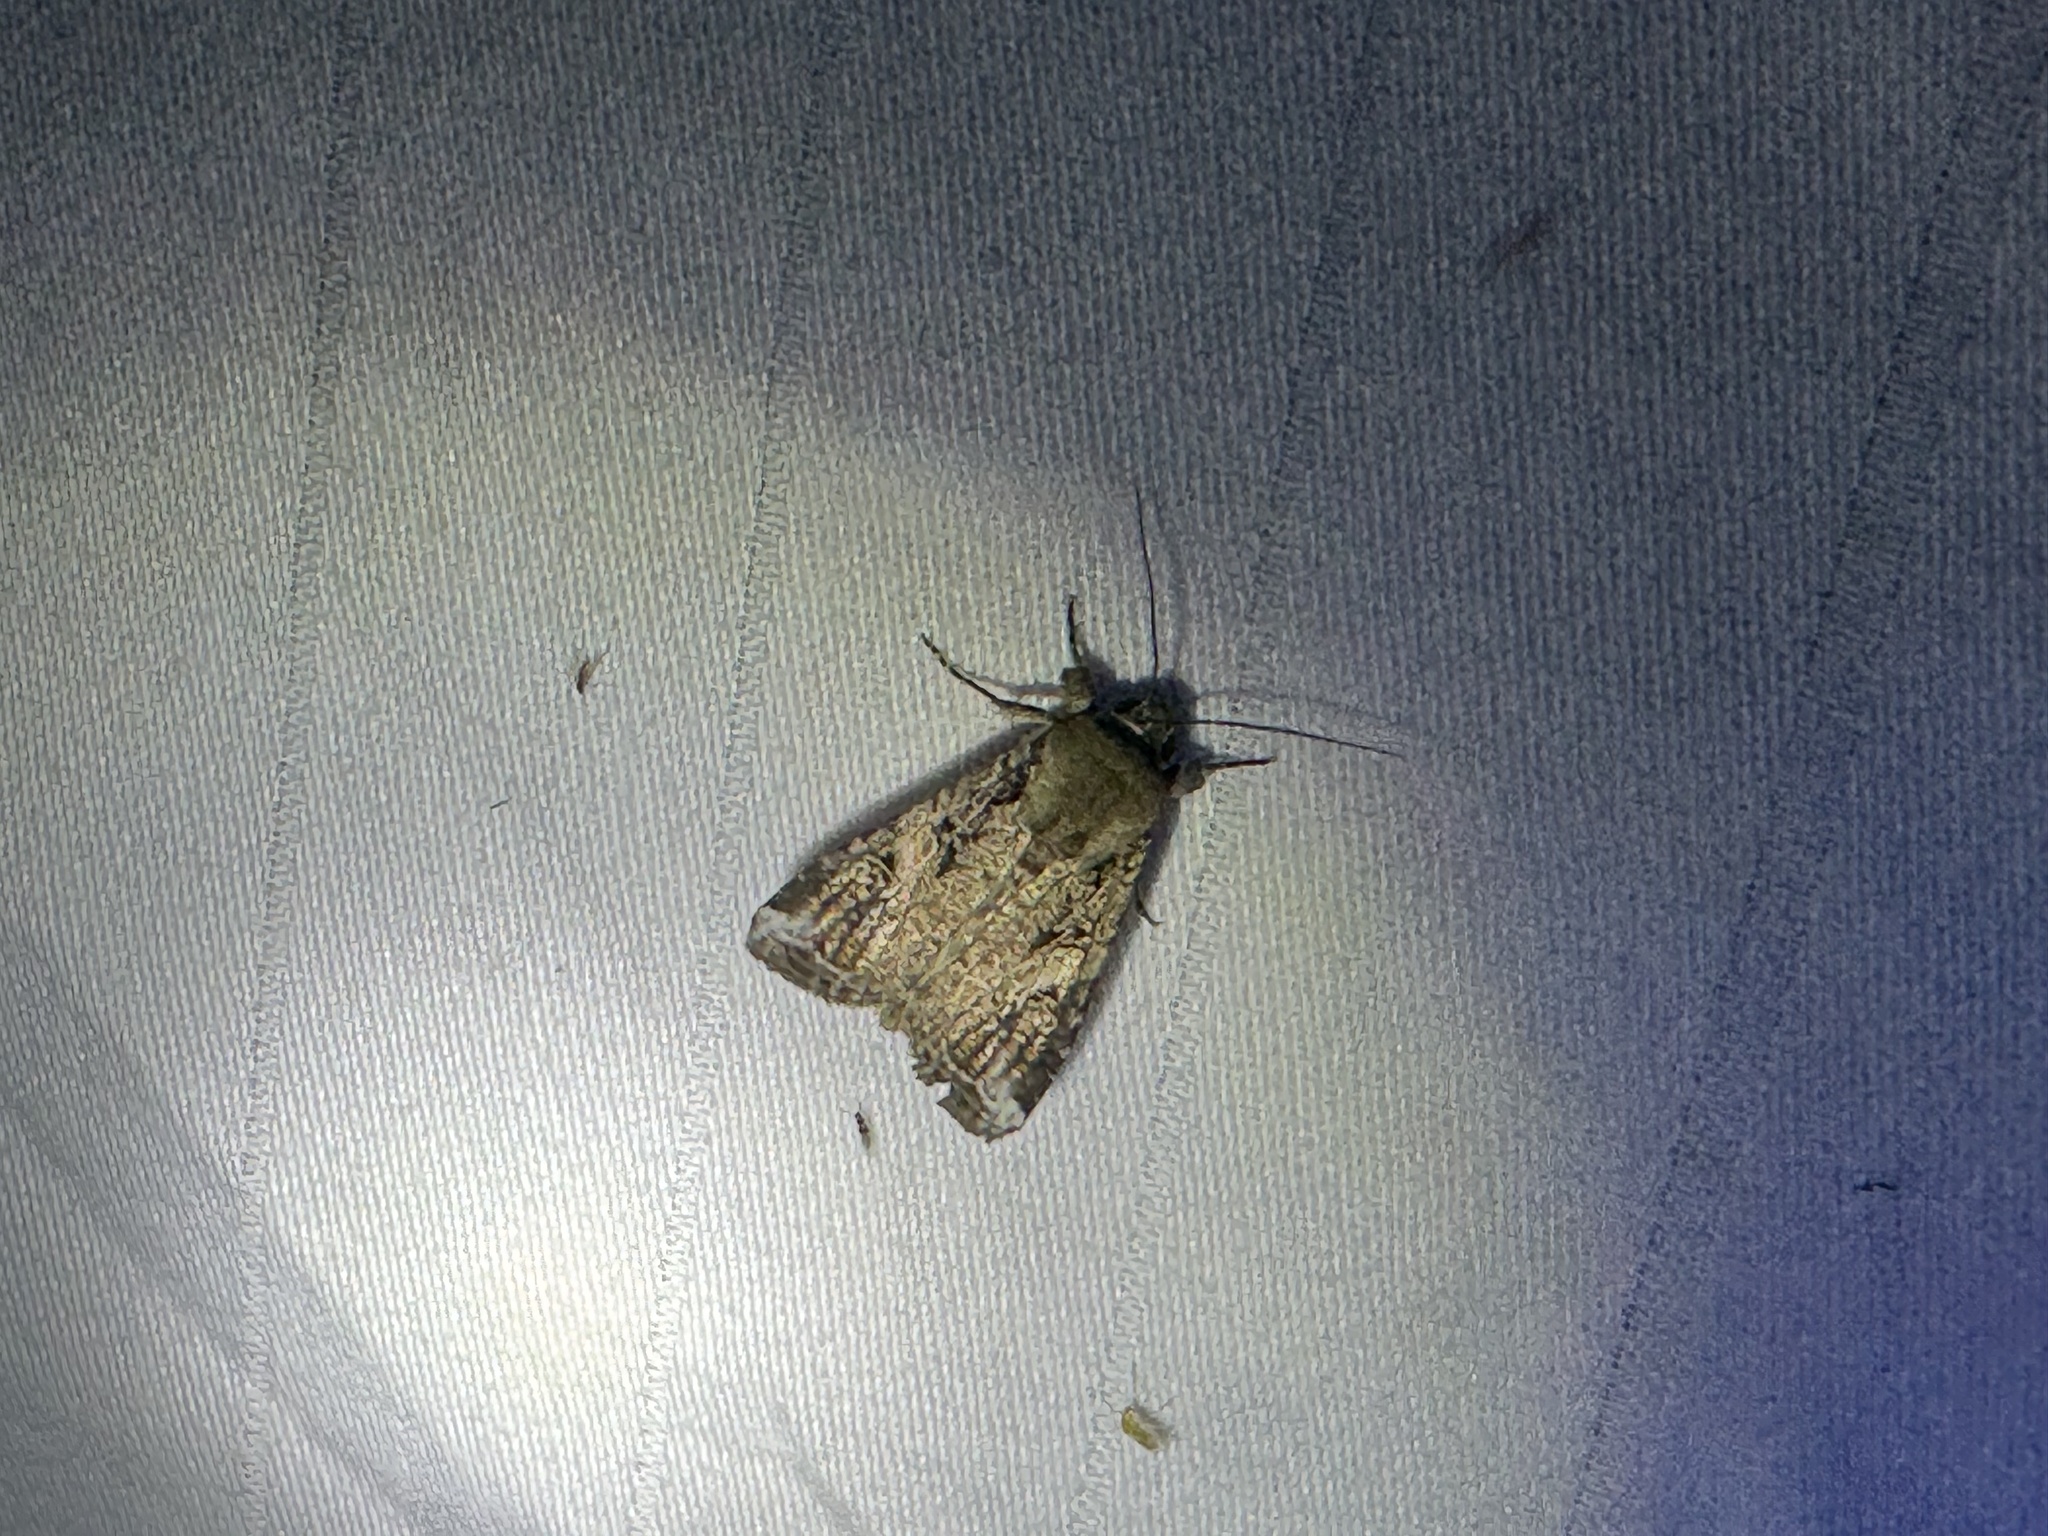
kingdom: Animalia
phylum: Arthropoda
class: Insecta
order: Lepidoptera
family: Noctuidae
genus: Spodoptera
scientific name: Spodoptera frugiperda
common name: Fall armyworm
